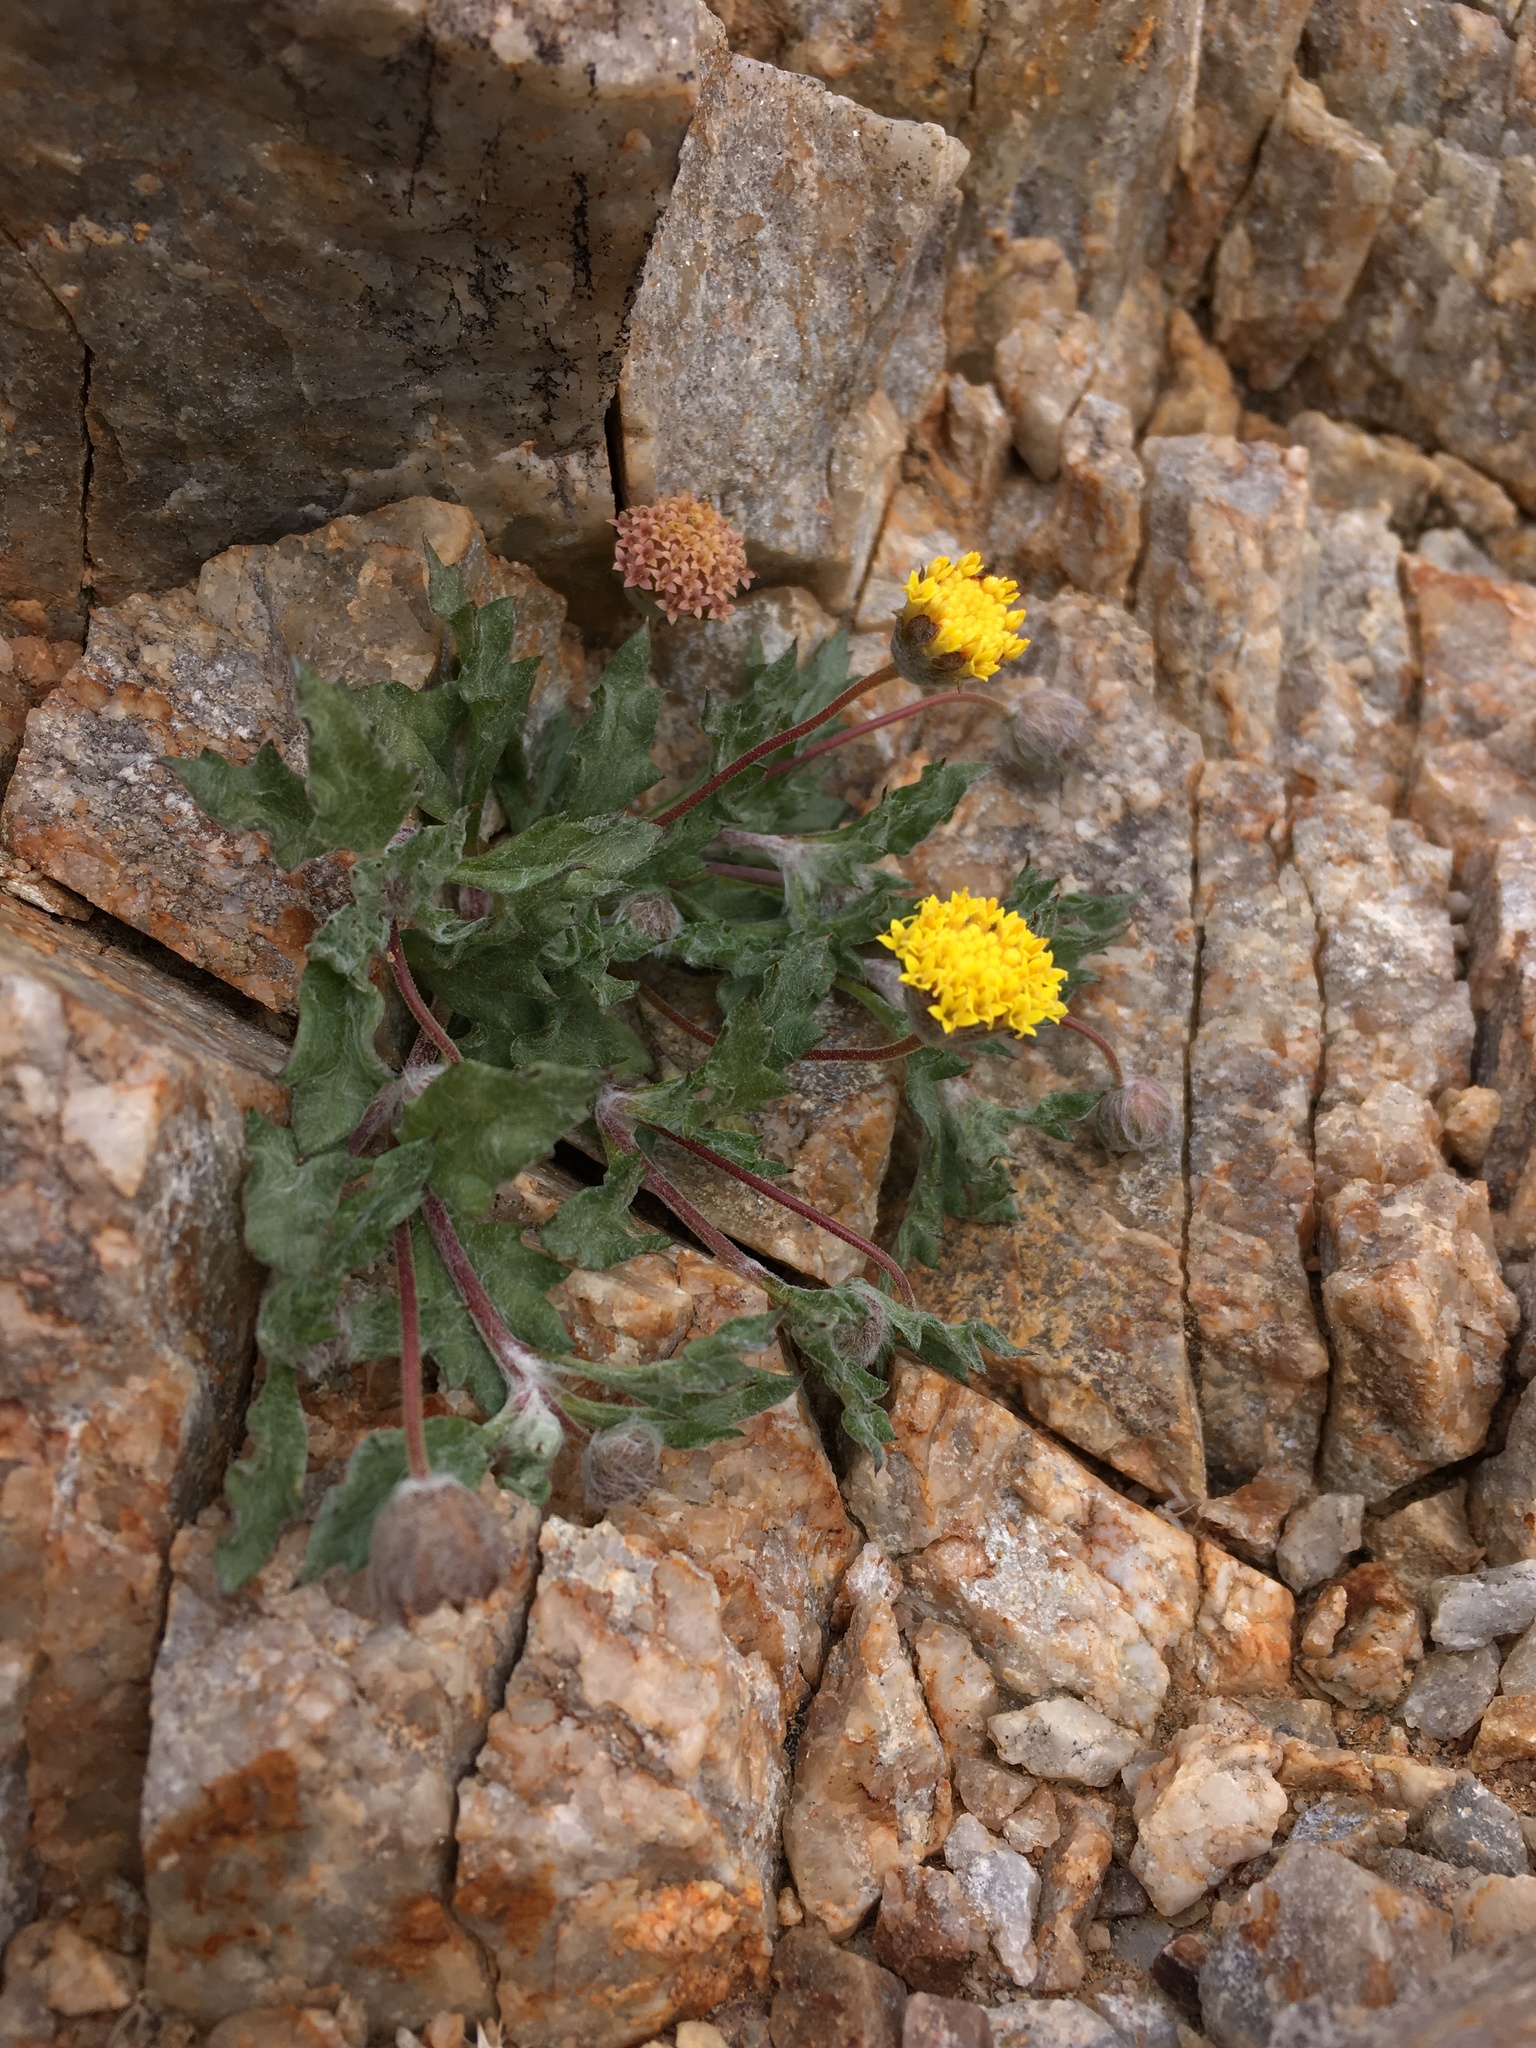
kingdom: Plantae
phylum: Tracheophyta
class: Magnoliopsida
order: Asterales
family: Asteraceae
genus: Trichoptilium
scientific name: Trichoptilium incisum
